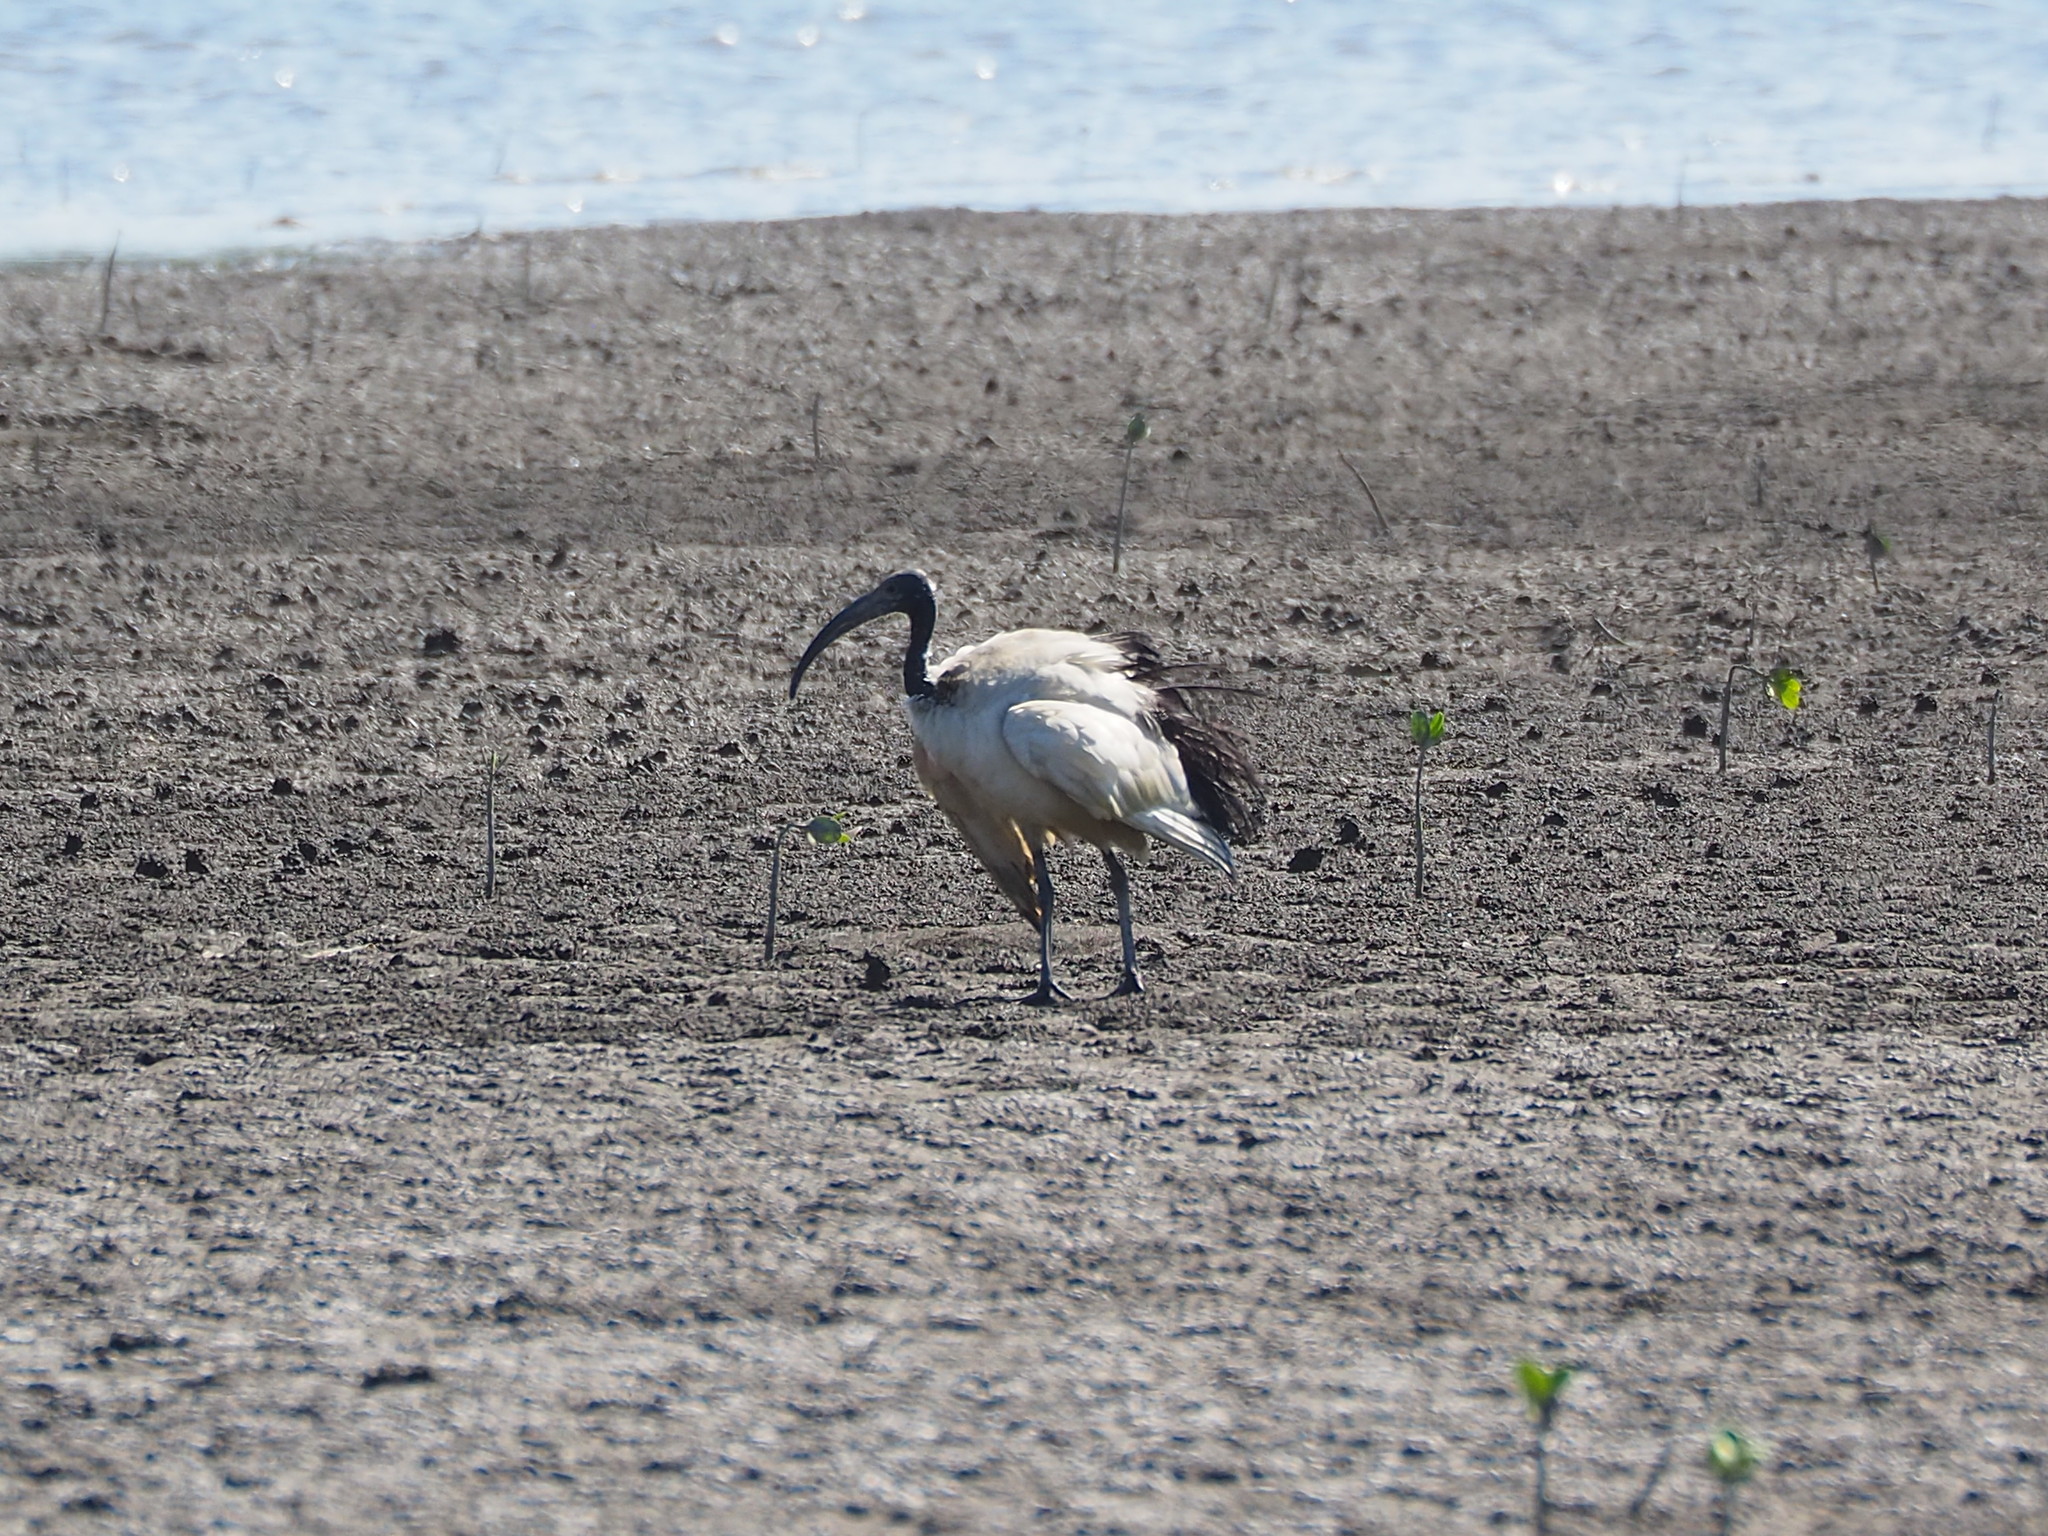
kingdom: Animalia
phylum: Chordata
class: Aves
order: Pelecaniformes
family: Threskiornithidae
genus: Threskiornis
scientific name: Threskiornis aethiopicus
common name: Sacred ibis
